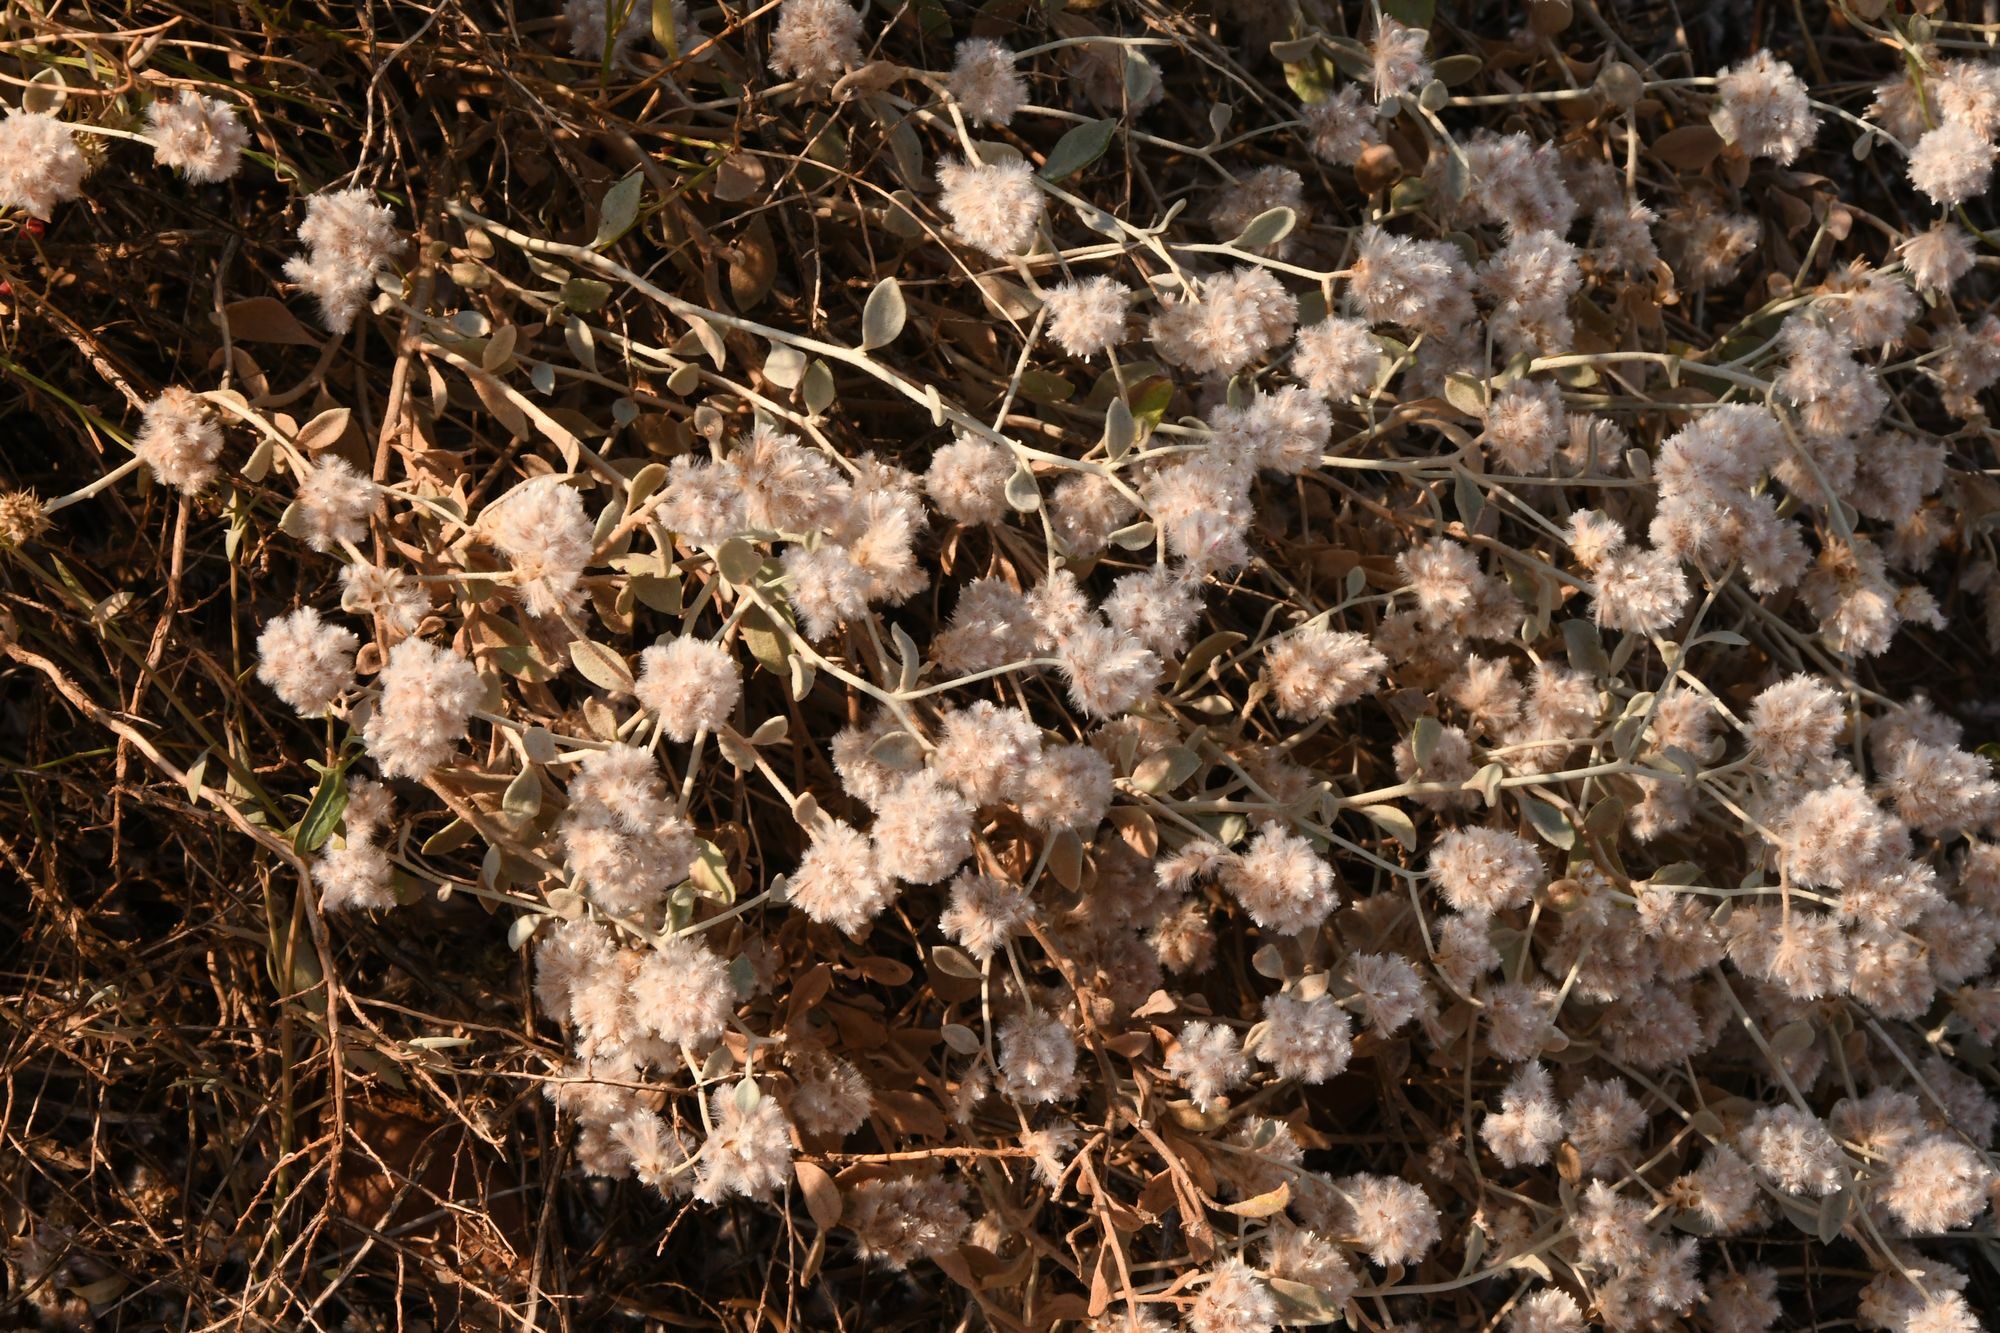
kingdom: Plantae
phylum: Tracheophyta
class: Magnoliopsida
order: Caryophyllales
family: Amaranthaceae
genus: Ptilotus
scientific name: Ptilotus obovatus
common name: Cottonbush
